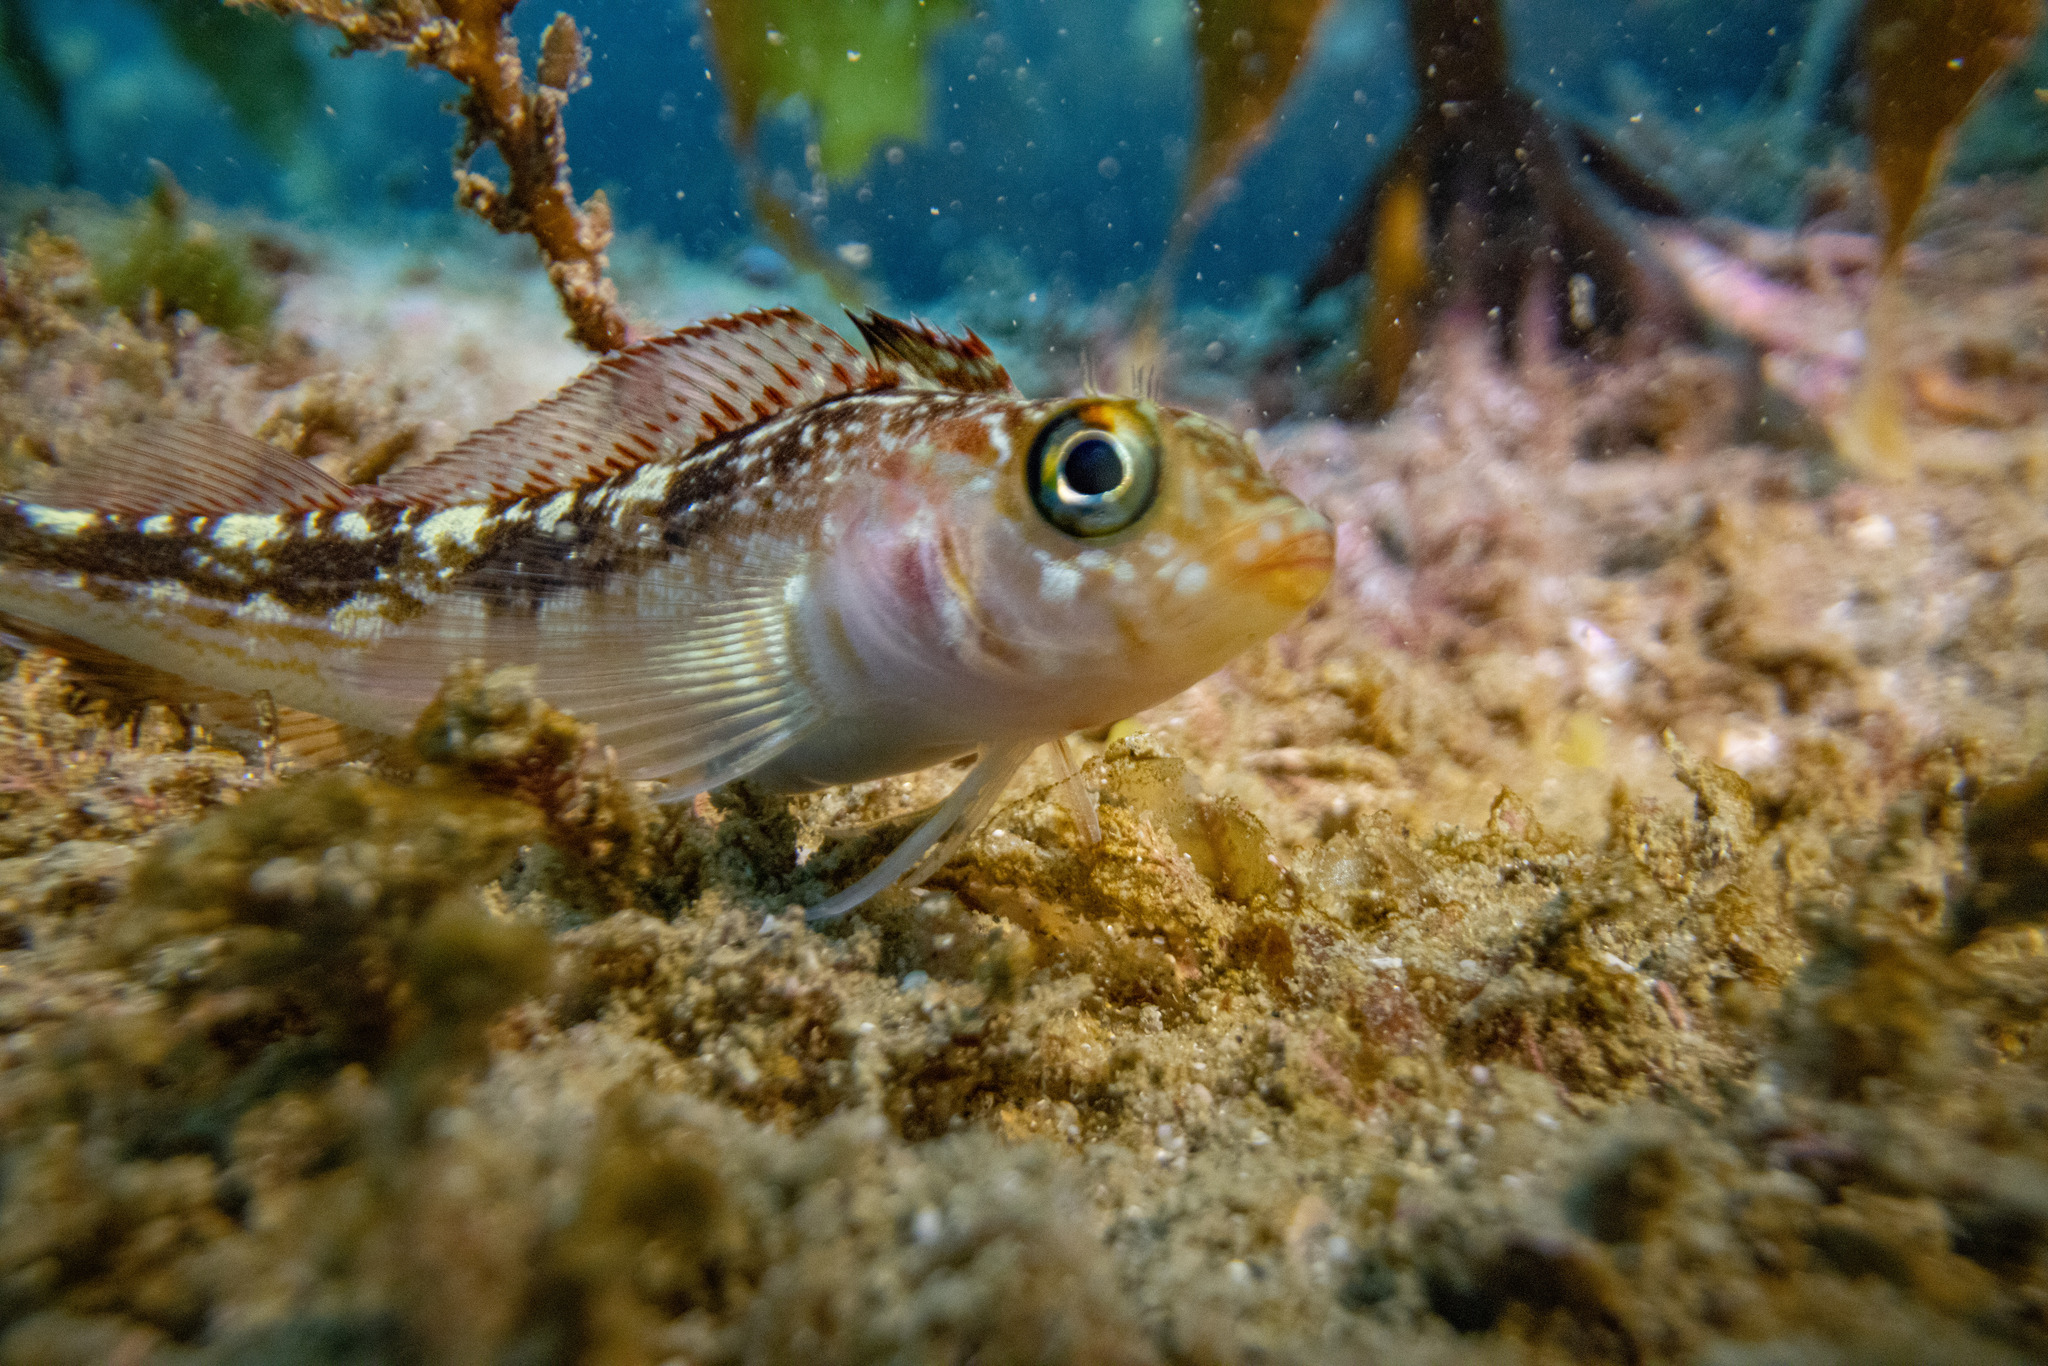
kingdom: Animalia
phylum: Chordata
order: Perciformes
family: Tripterygiidae
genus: Forsterygion
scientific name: Forsterygion varium
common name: Variable triplefin
